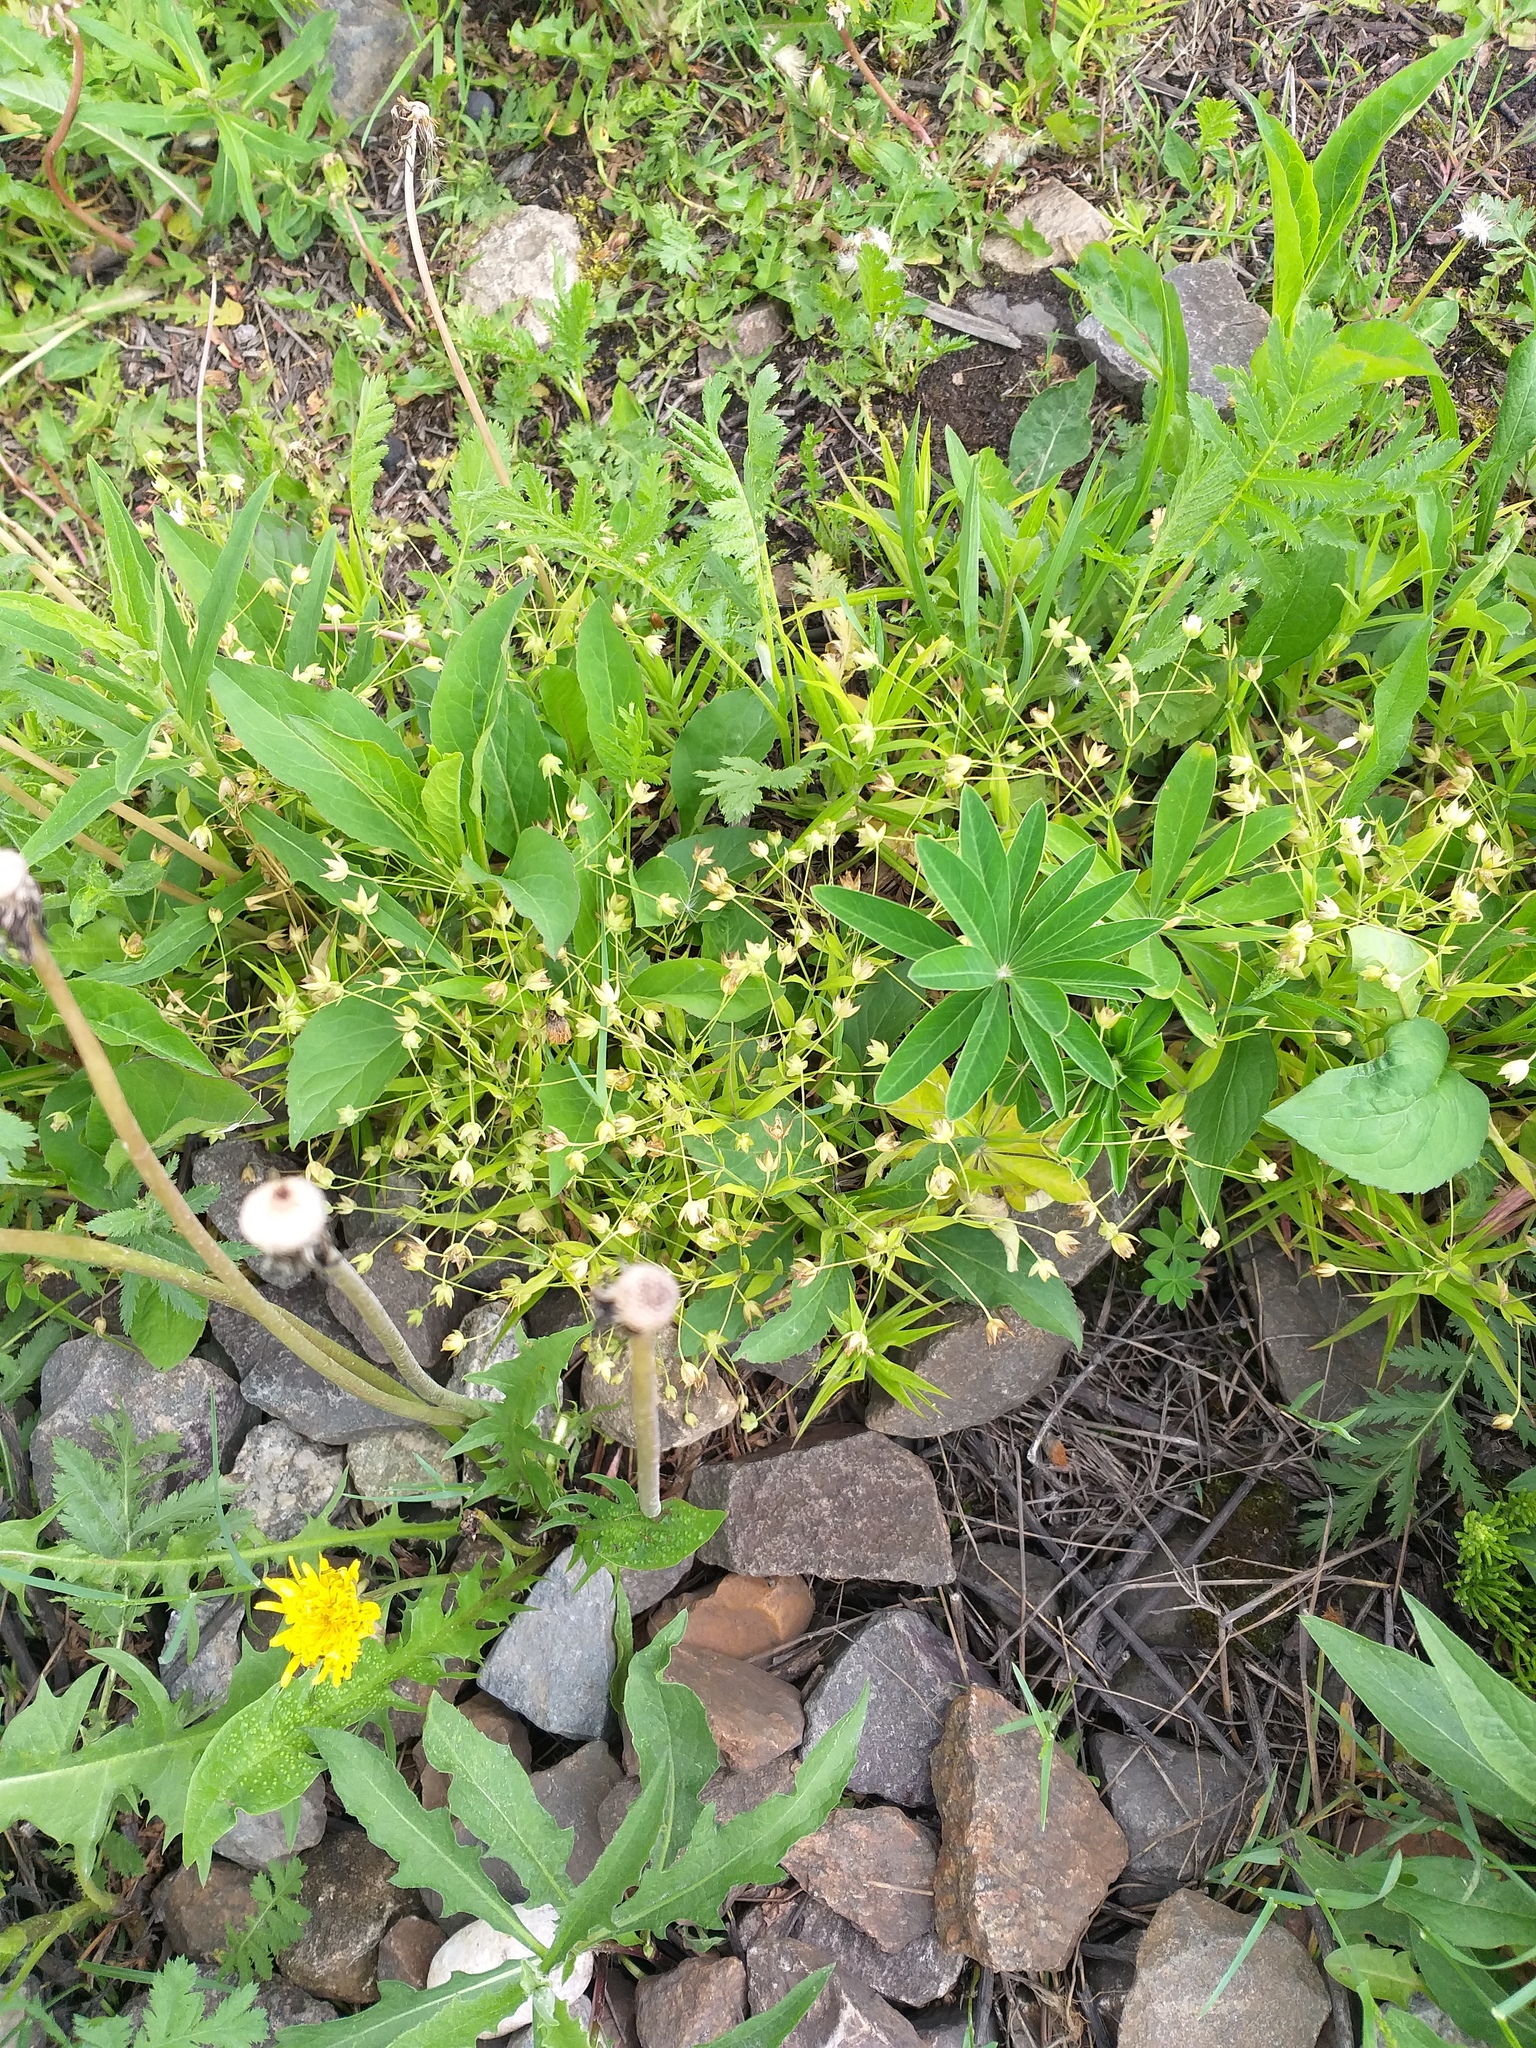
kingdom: Plantae
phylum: Tracheophyta
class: Magnoliopsida
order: Caryophyllales
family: Caryophyllaceae
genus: Rabelera
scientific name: Rabelera holostea
